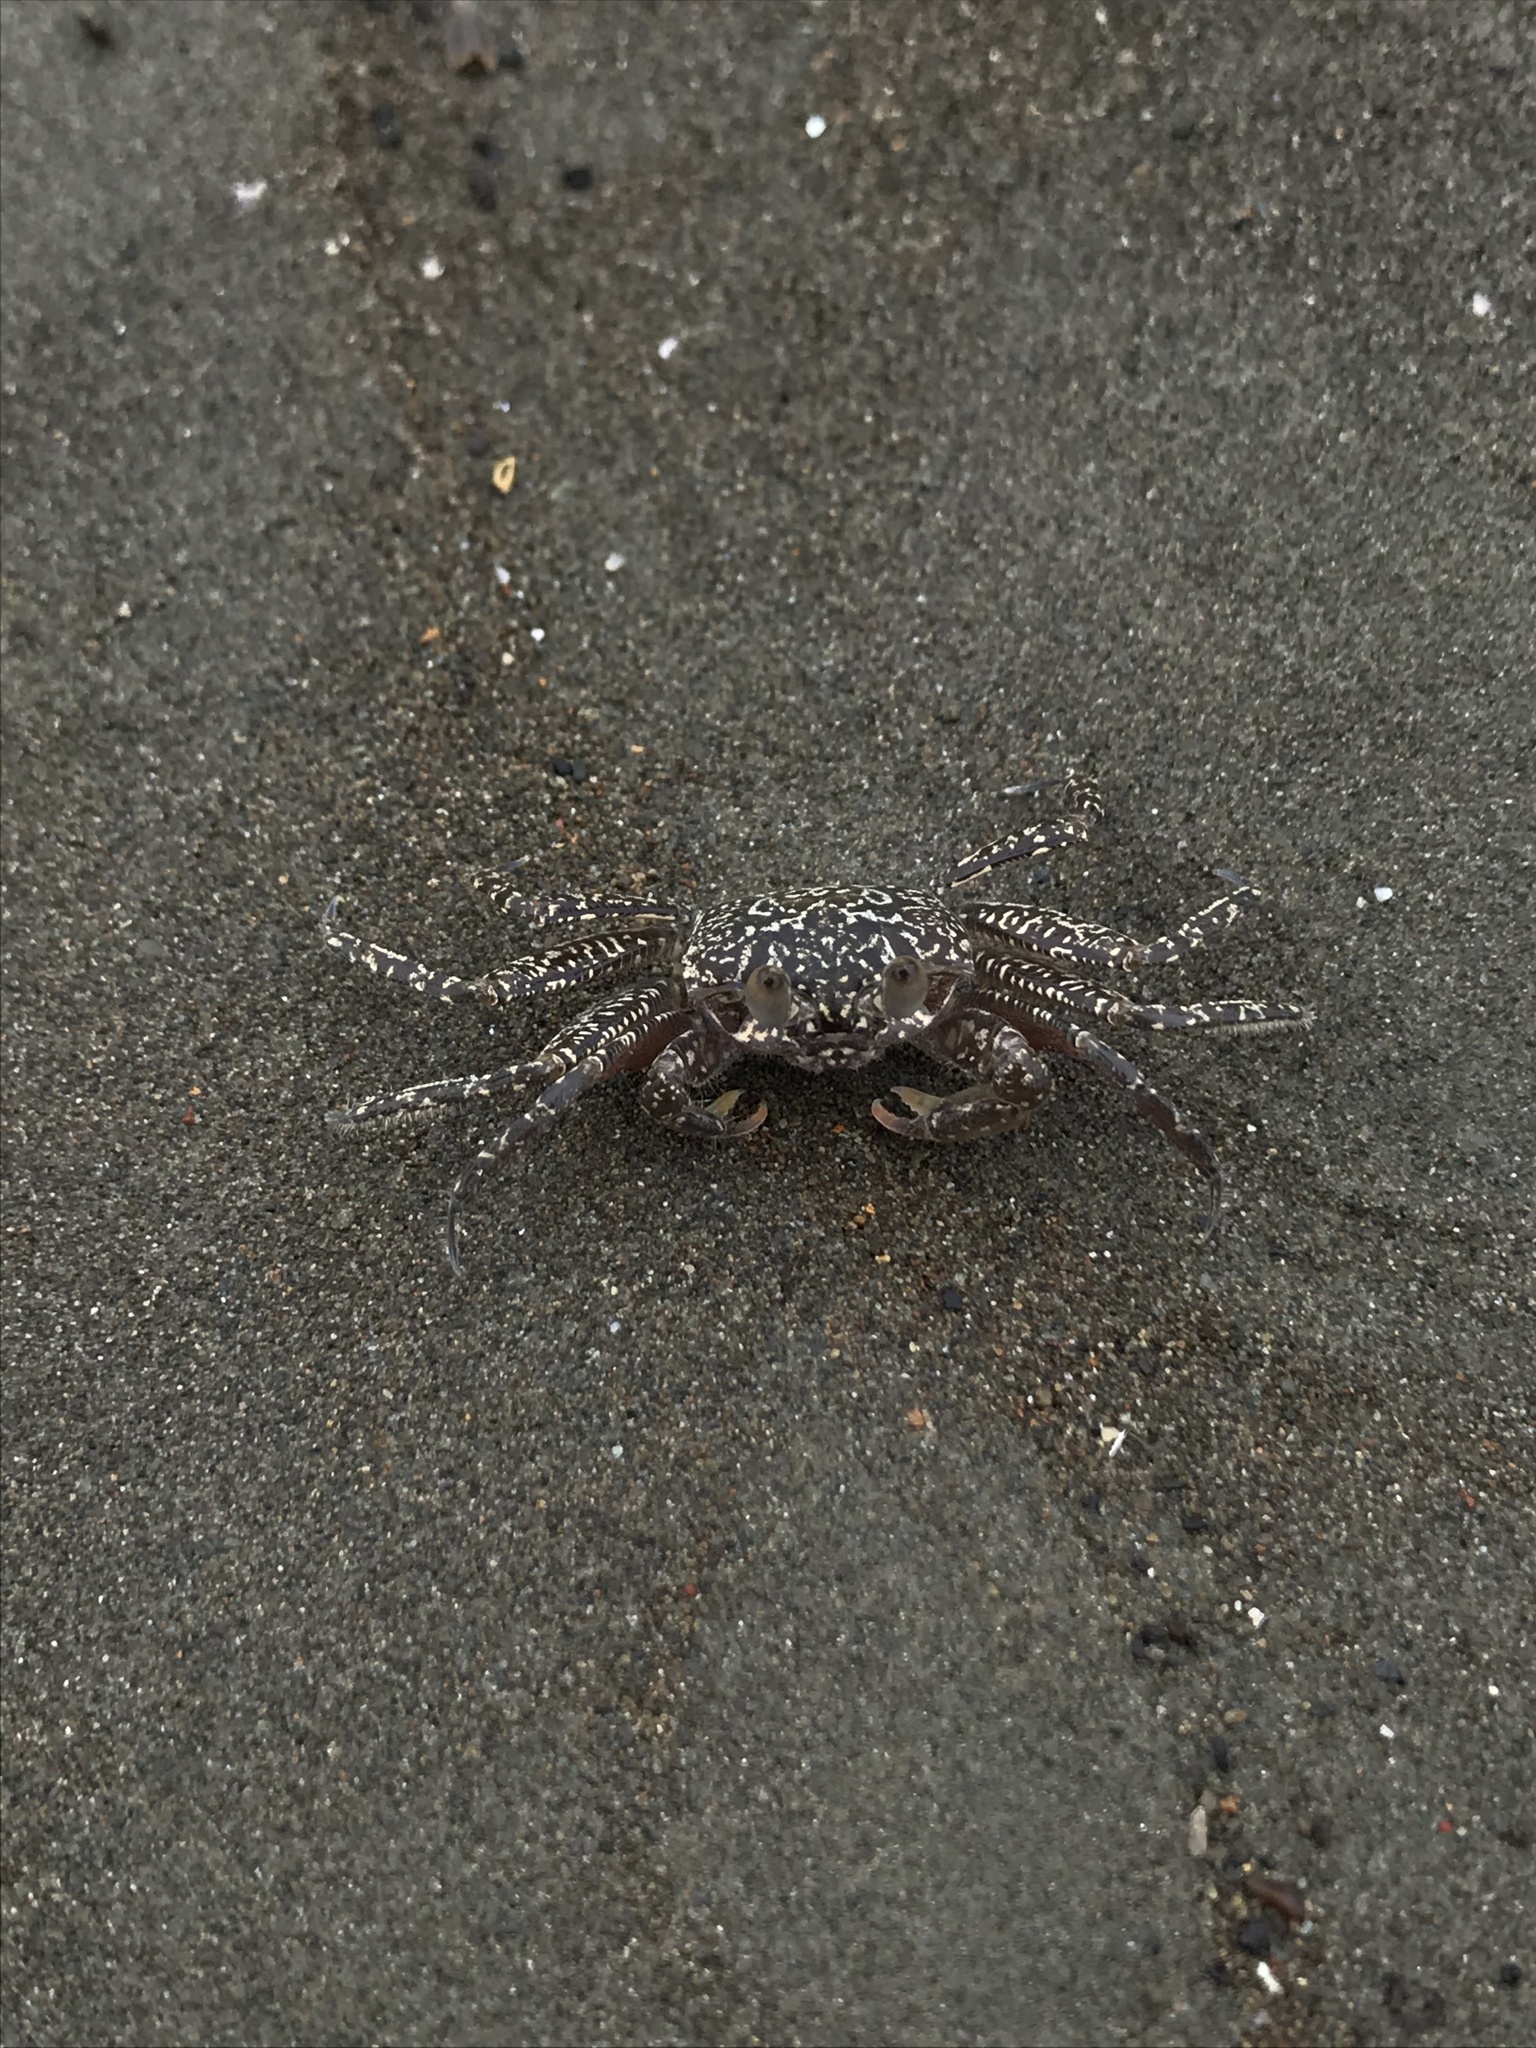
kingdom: Animalia
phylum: Arthropoda
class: Malacostraca
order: Decapoda
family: Ocypodidae
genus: Ocypode
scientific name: Ocypode gaudichaudii
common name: Pacific ghost crab
